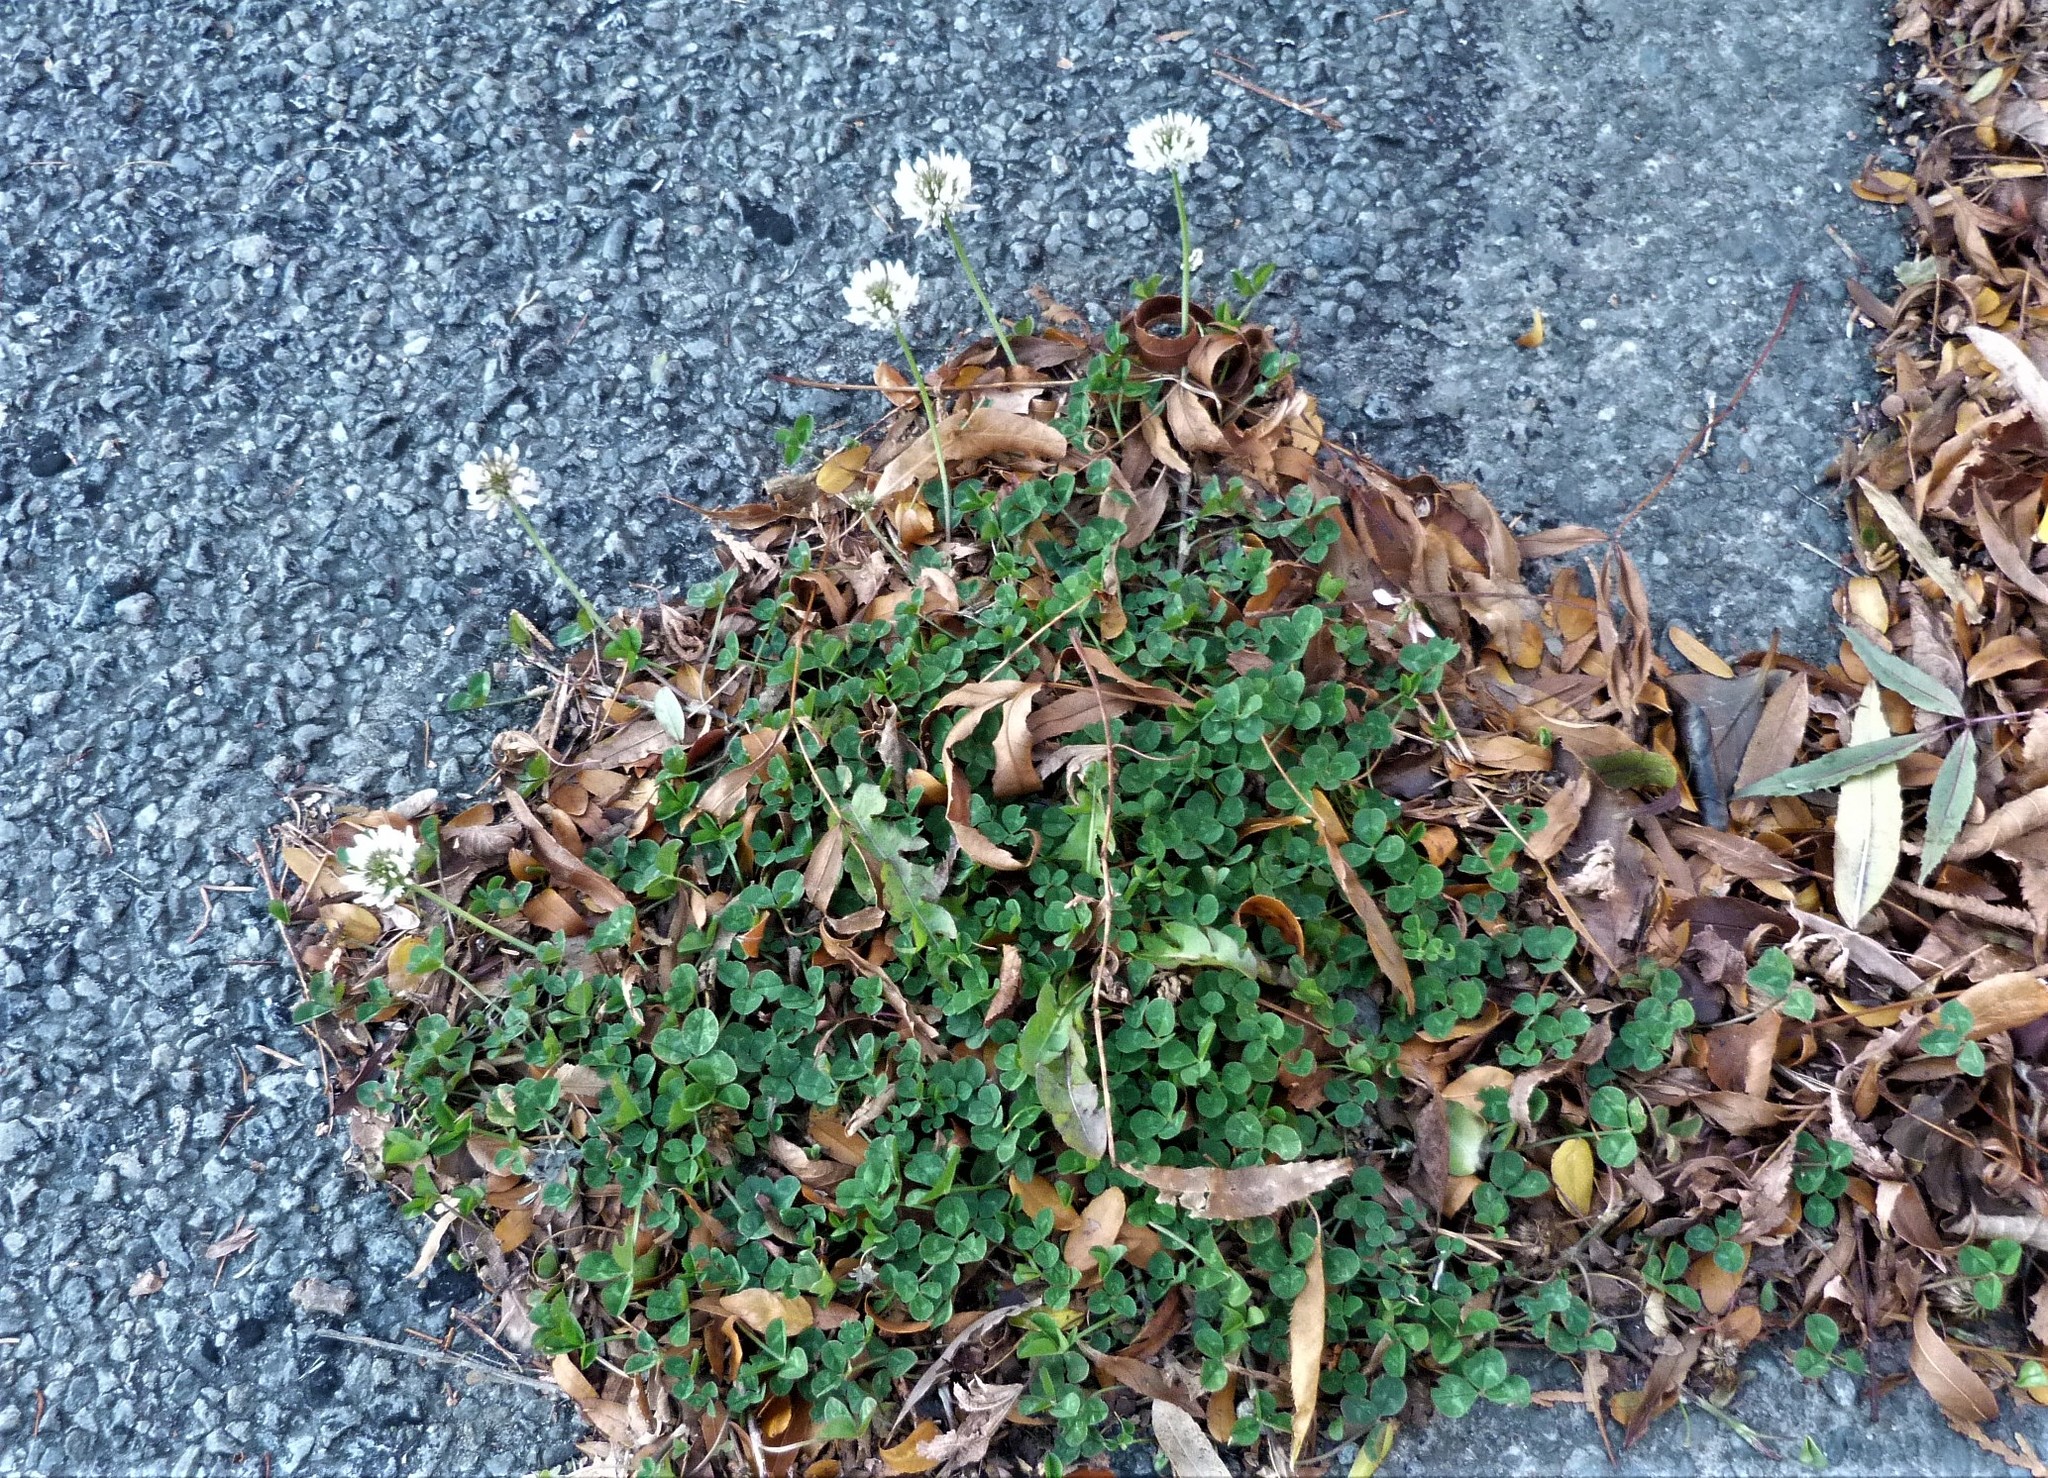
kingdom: Plantae
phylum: Tracheophyta
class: Magnoliopsida
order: Fabales
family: Fabaceae
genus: Trifolium
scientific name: Trifolium repens
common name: White clover
